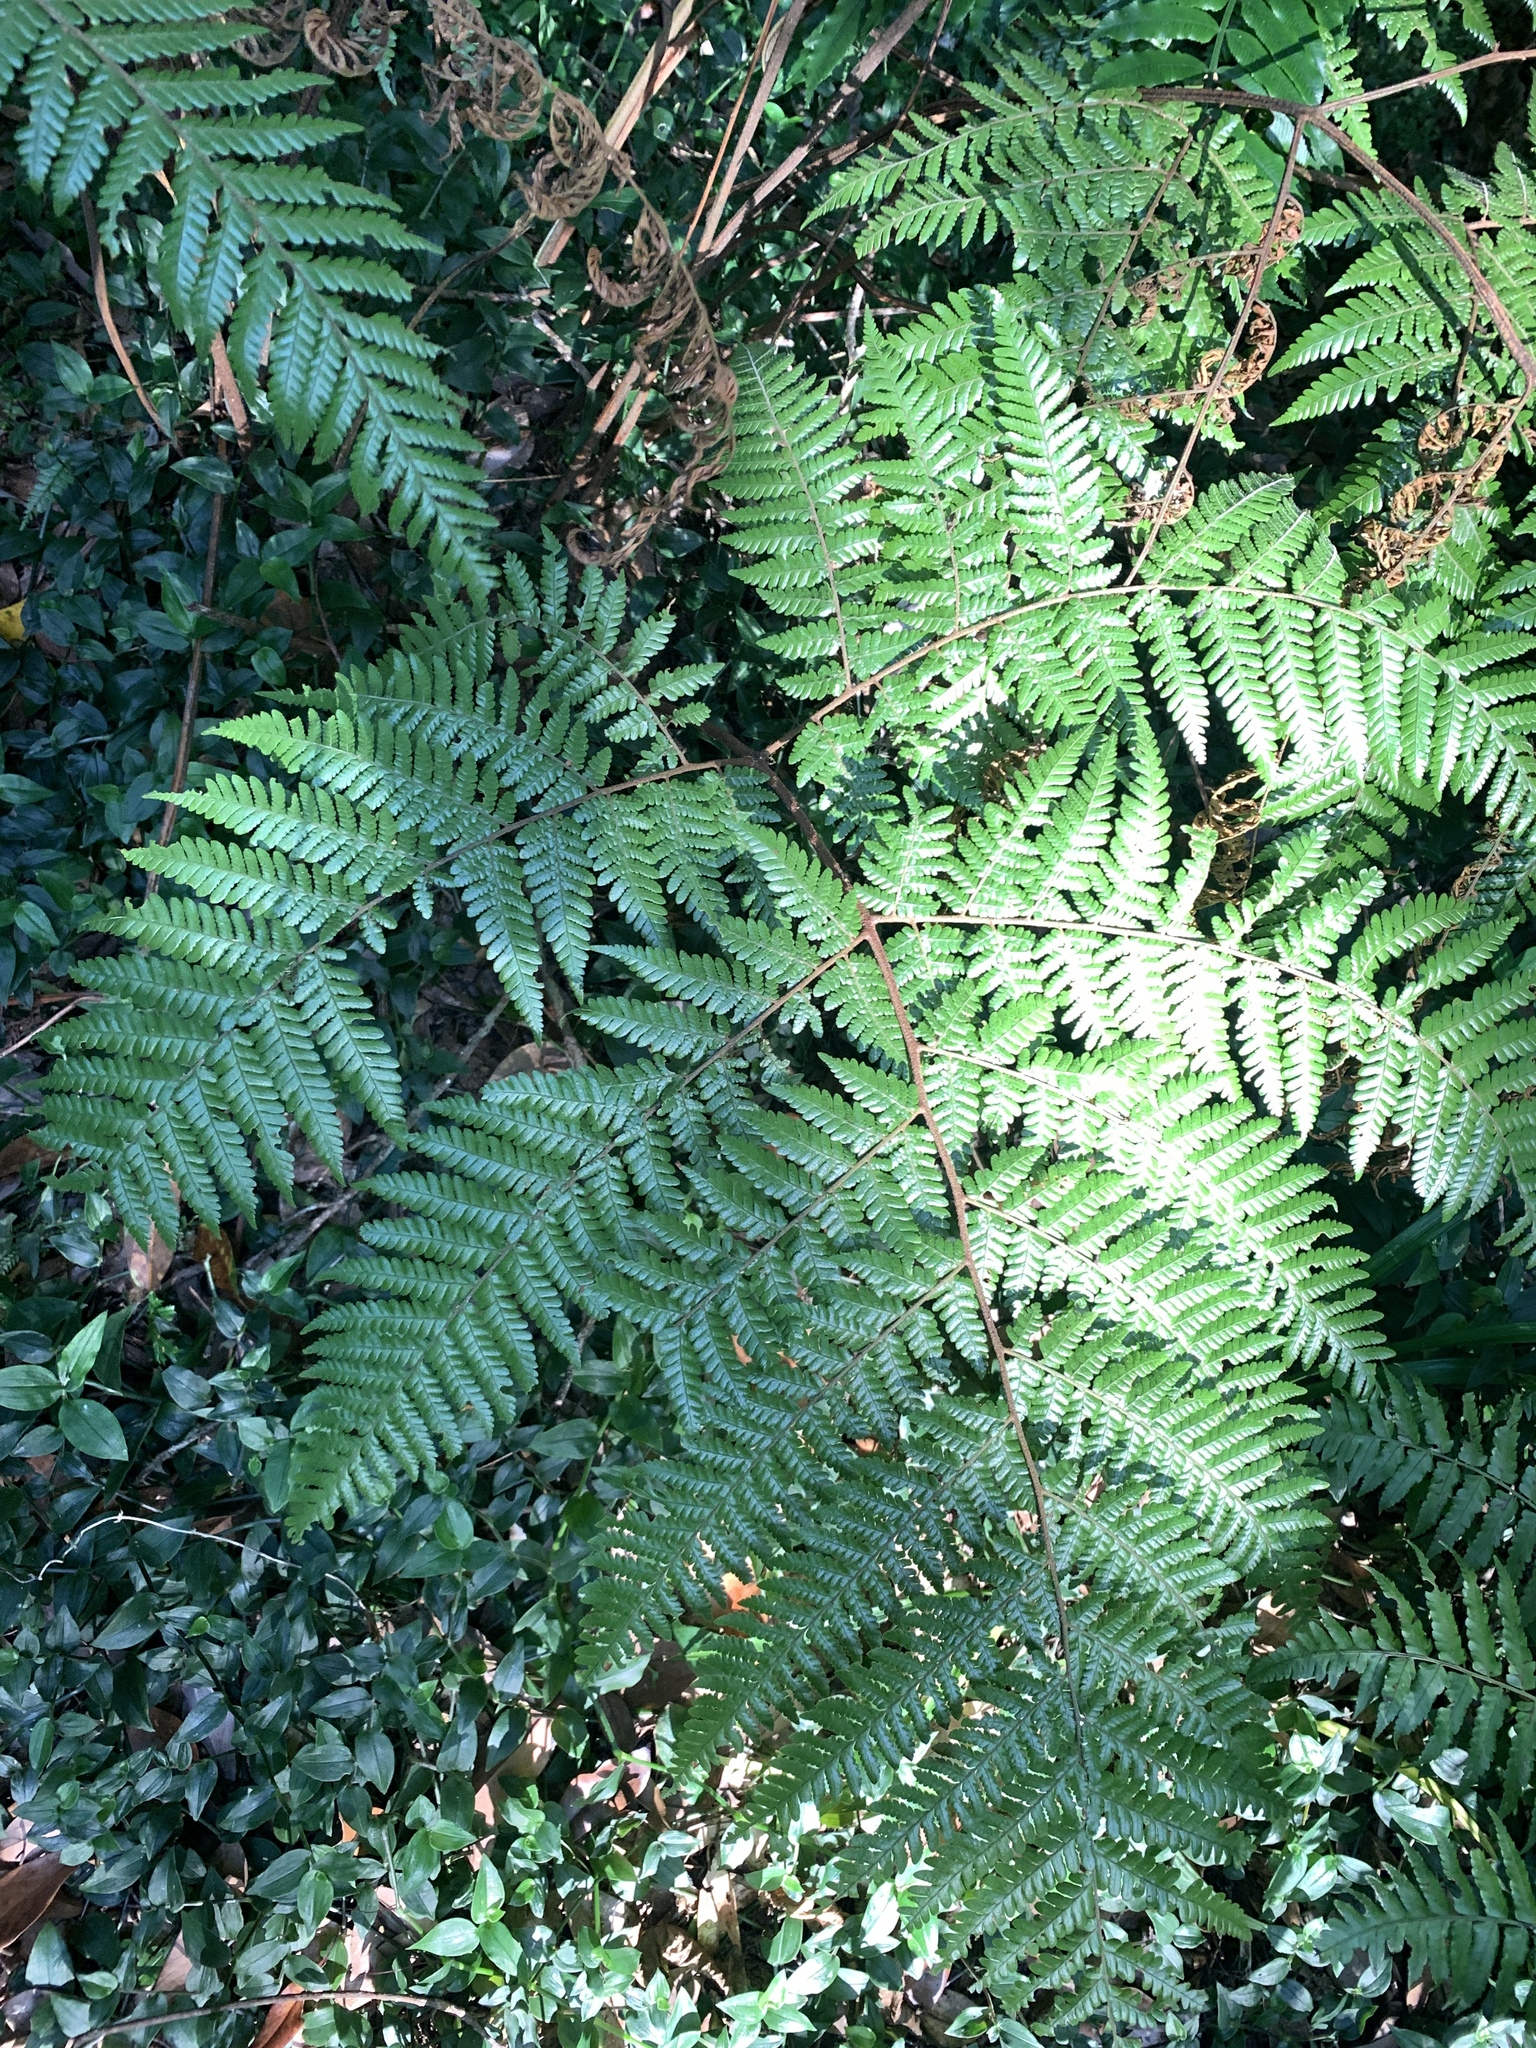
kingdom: Plantae
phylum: Tracheophyta
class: Polypodiopsida
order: Polypodiales
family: Dryopteridaceae
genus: Ctenitis
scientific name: Ctenitis subglandulosa
